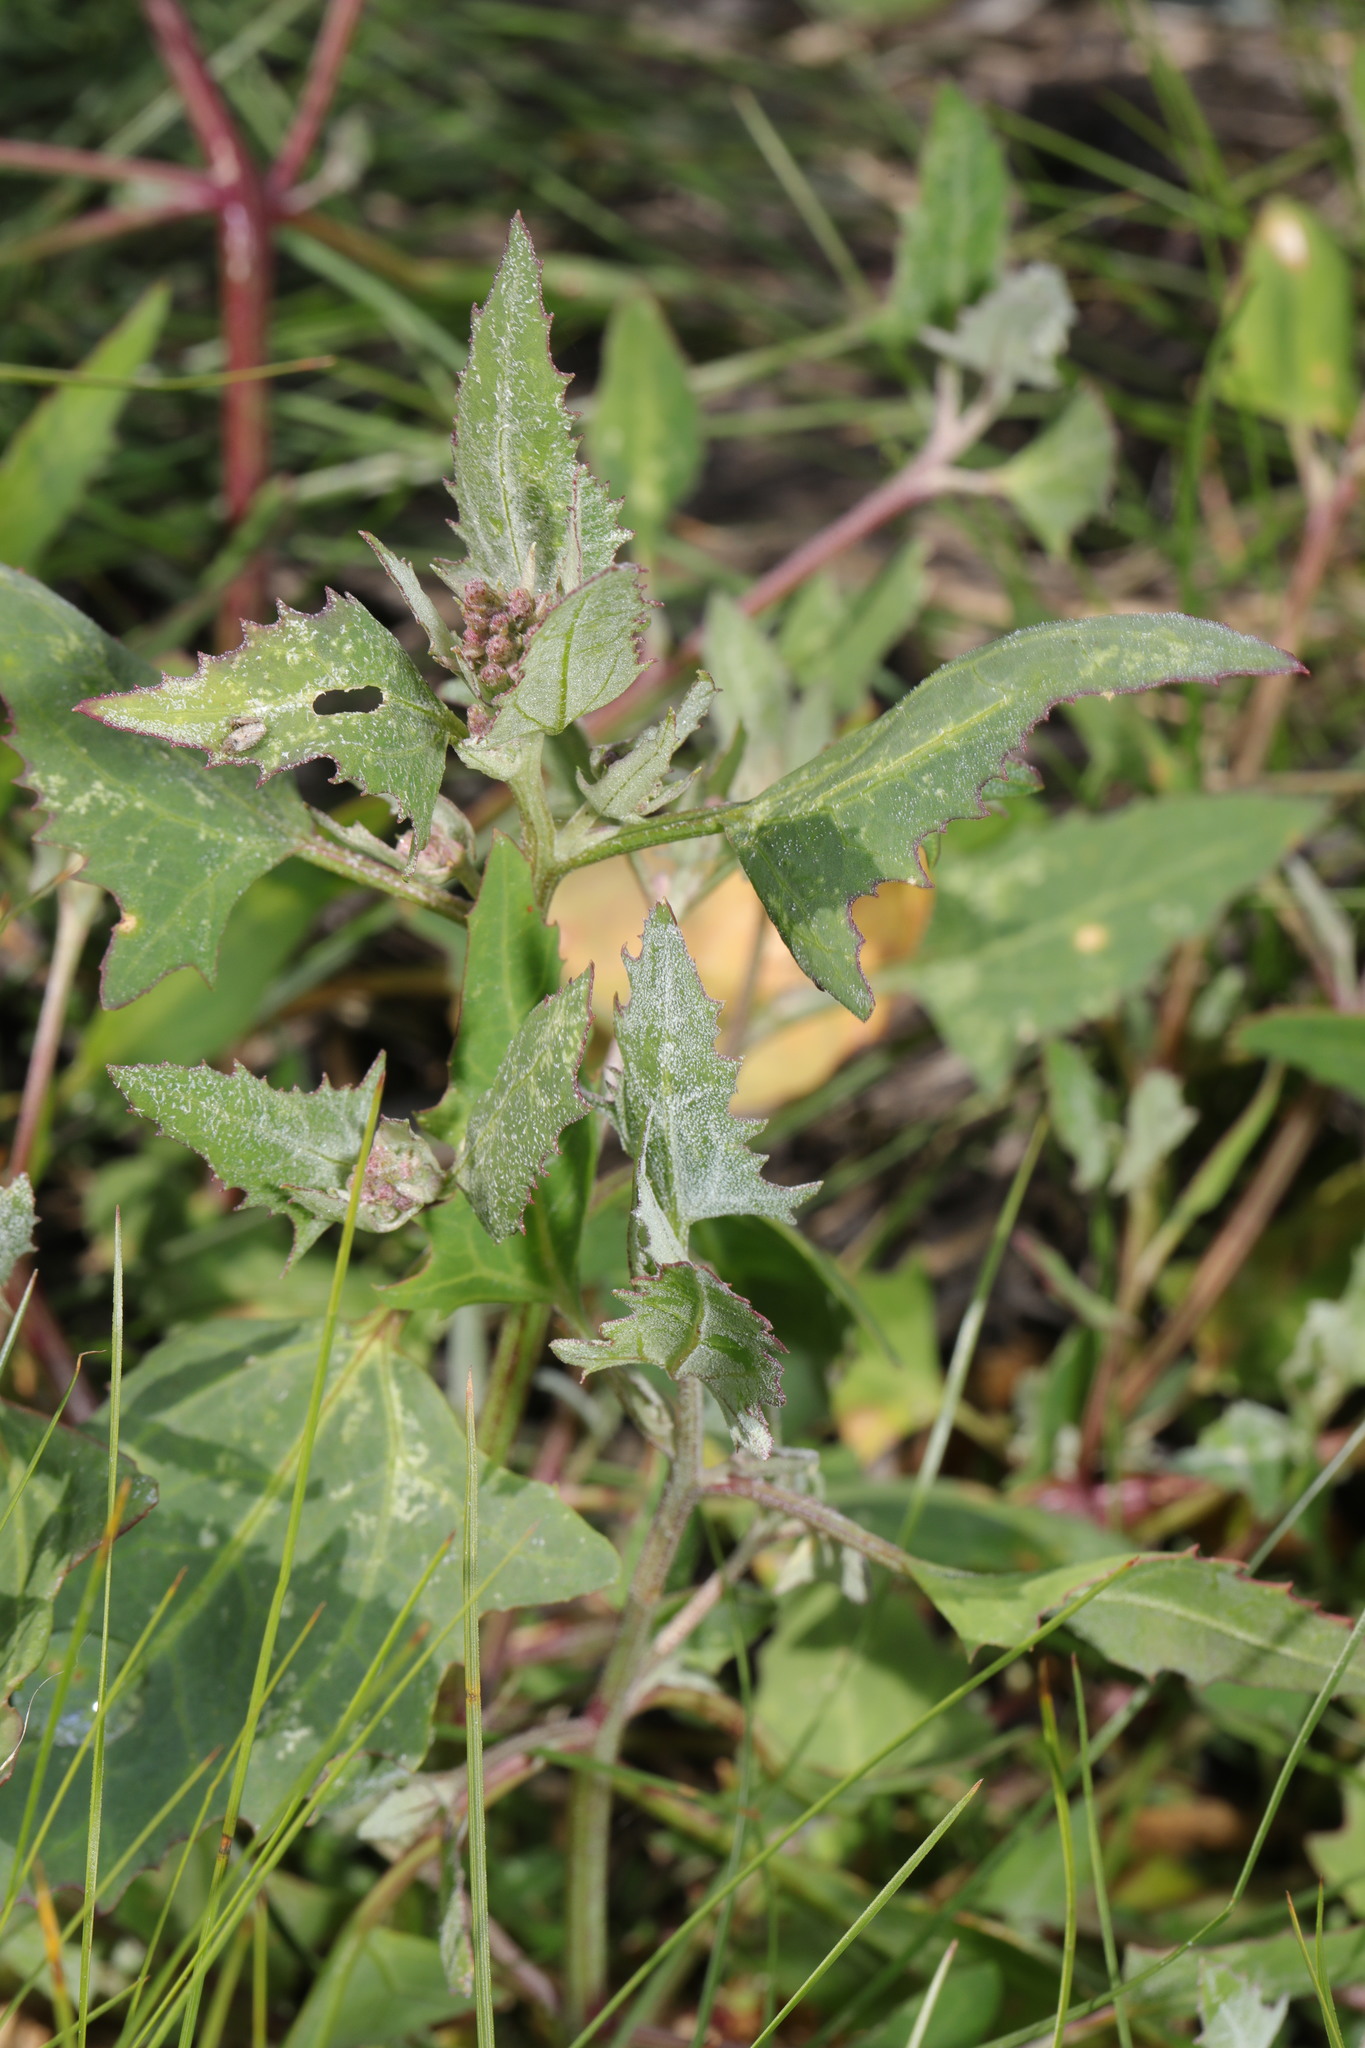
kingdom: Plantae
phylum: Tracheophyta
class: Magnoliopsida
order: Caryophyllales
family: Amaranthaceae
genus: Atriplex
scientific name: Atriplex prostrata
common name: Spear-leaved orache
